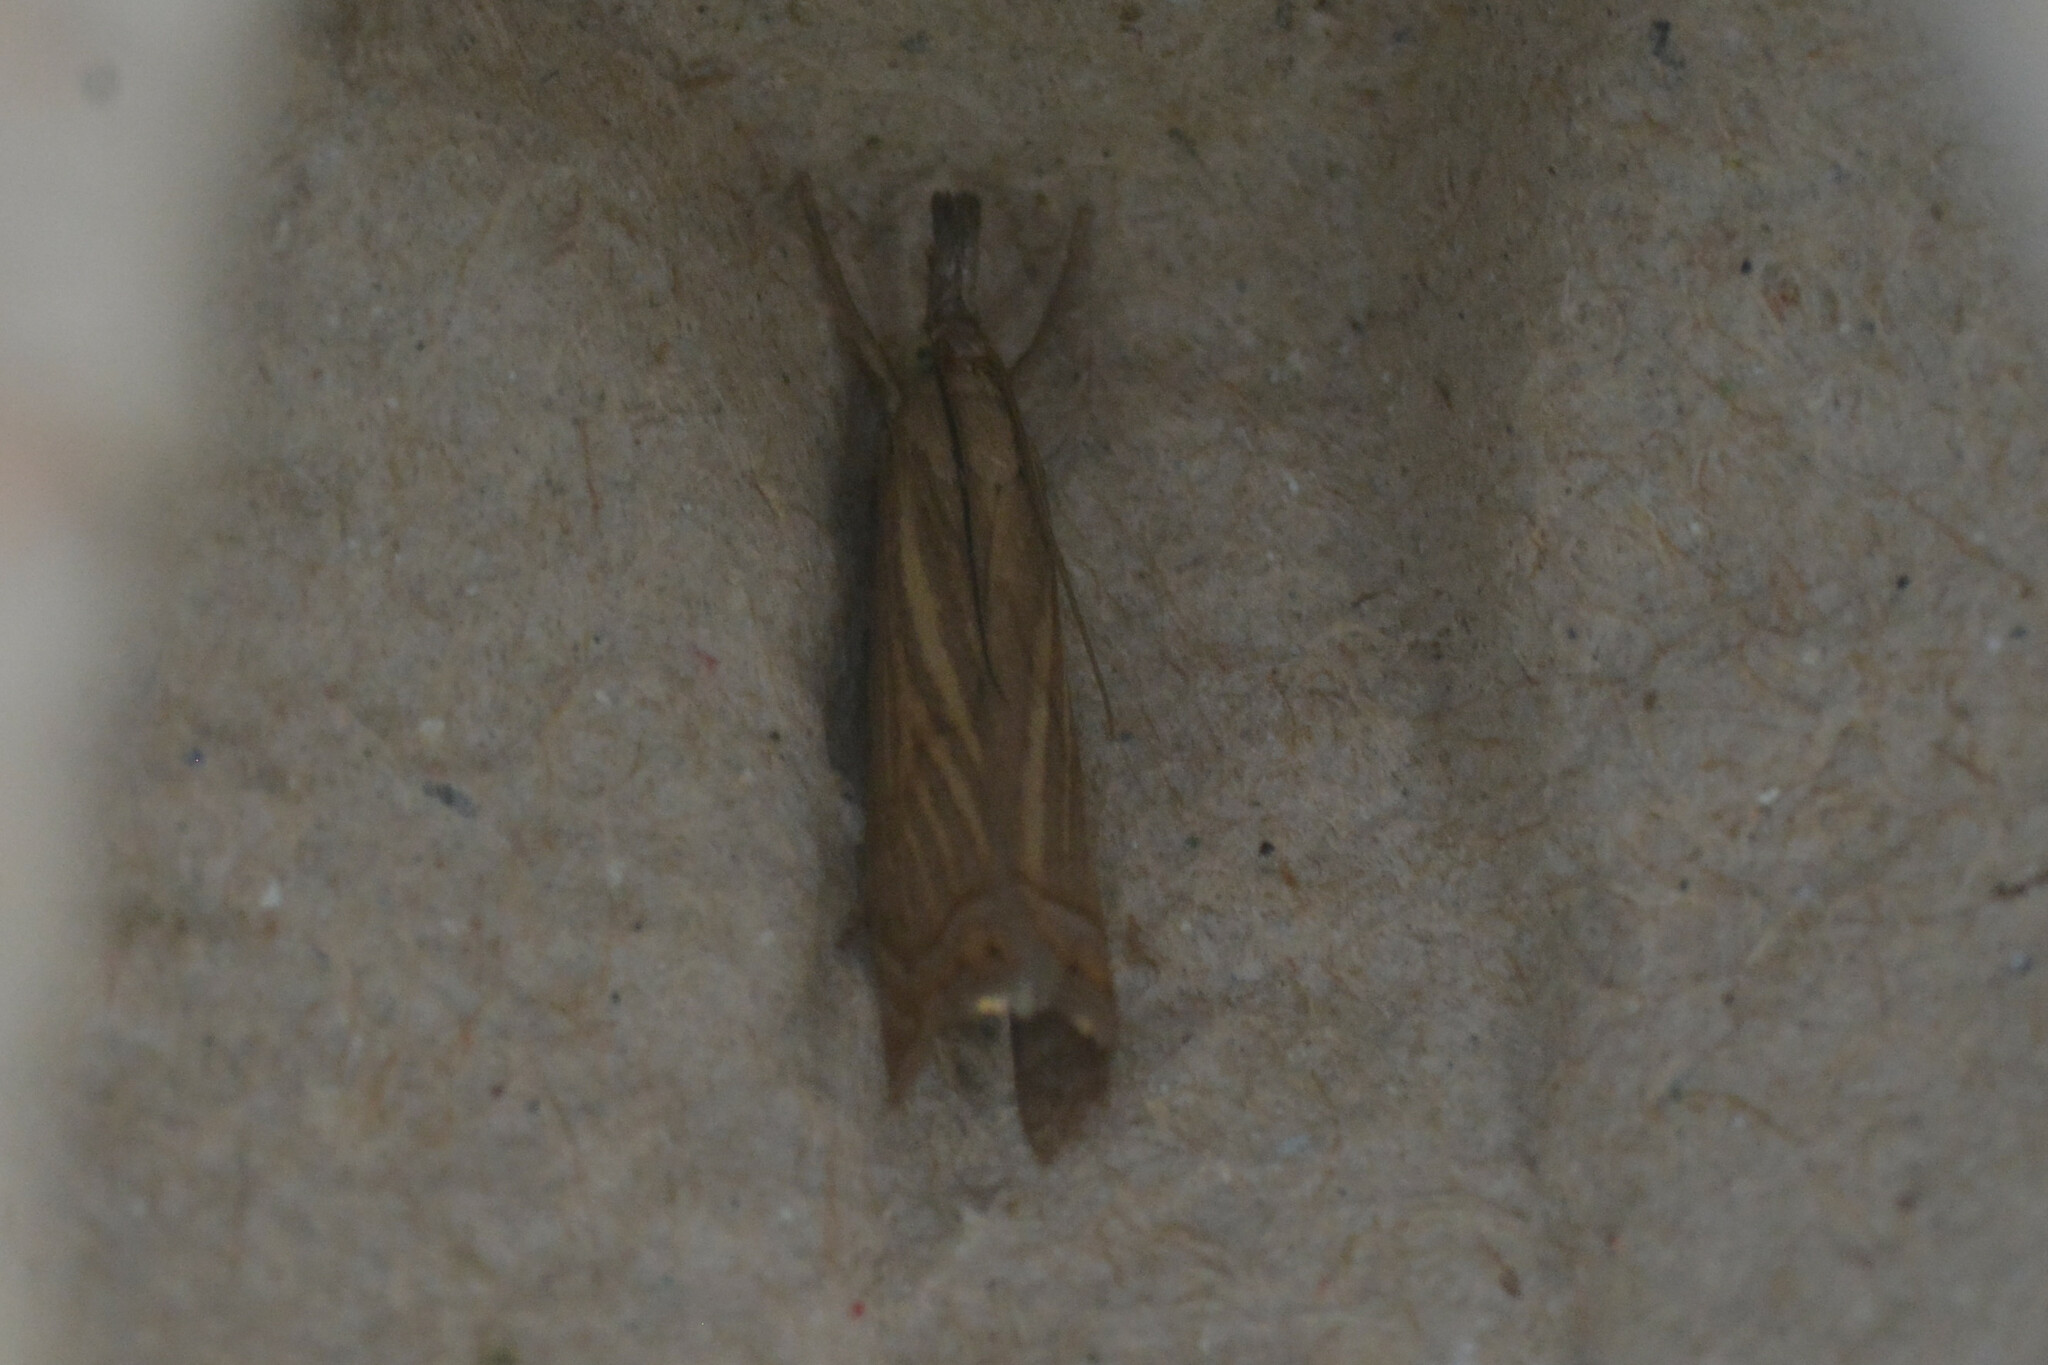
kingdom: Animalia
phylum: Arthropoda
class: Insecta
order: Lepidoptera
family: Crambidae
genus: Chrysoteuchia
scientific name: Chrysoteuchia culmella
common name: Garden grass-veneer
